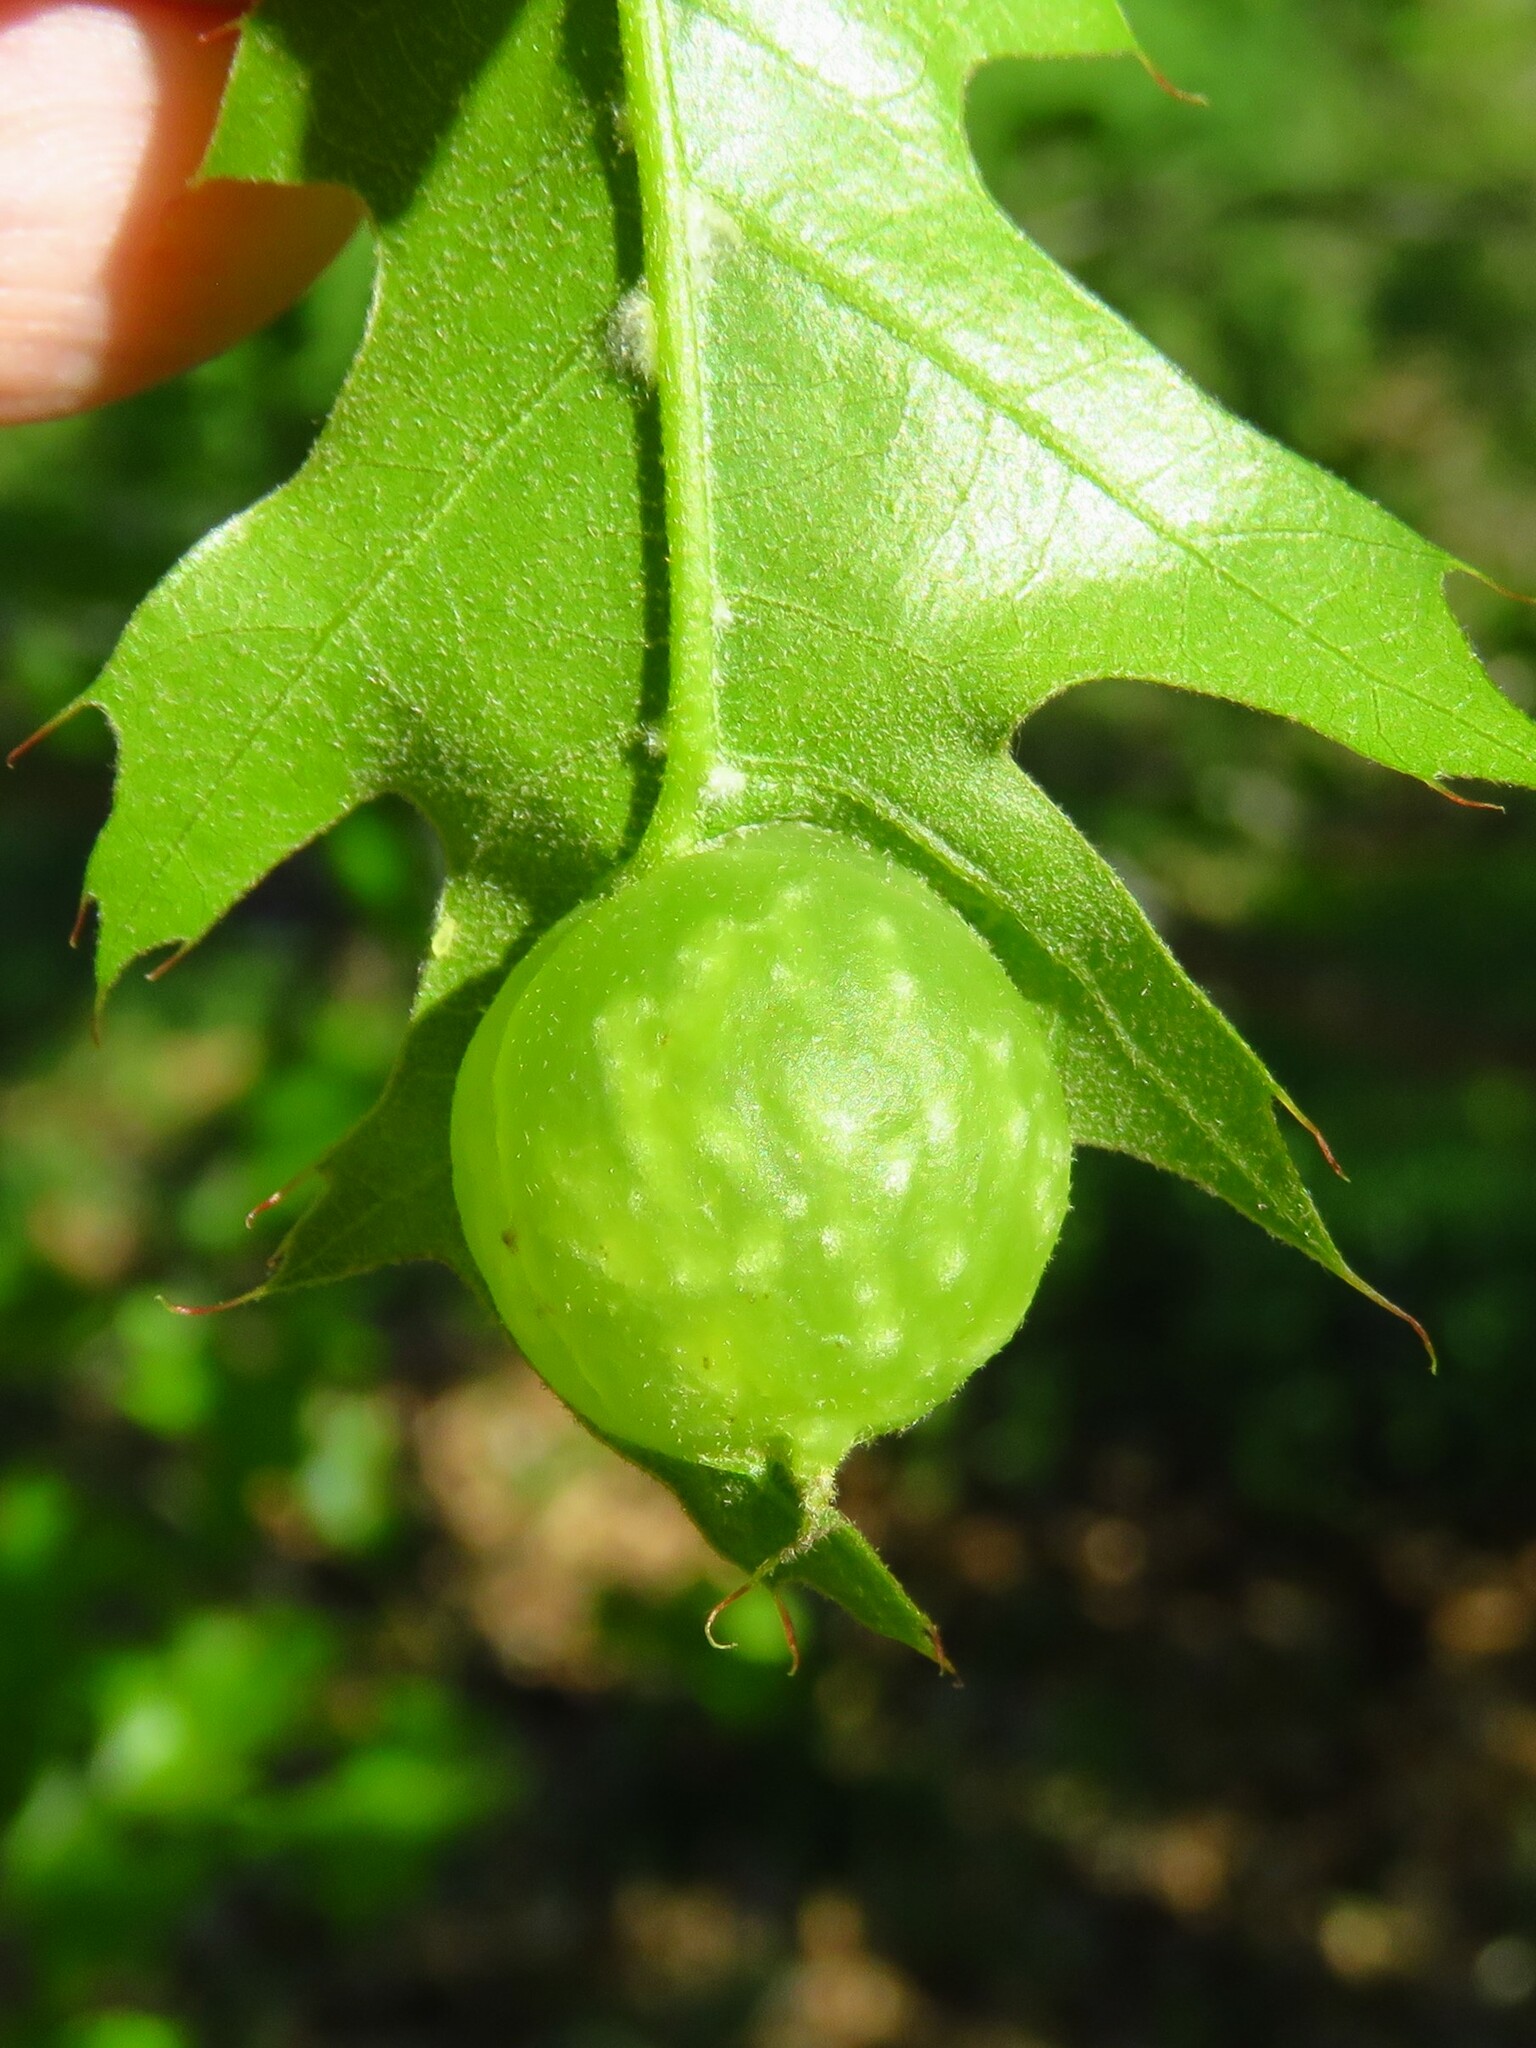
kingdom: Animalia
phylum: Arthropoda
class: Insecta
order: Hymenoptera
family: Cynipidae
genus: Dryocosmus
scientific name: Dryocosmus quercuspalustris
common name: Succulent oak gall wasp
